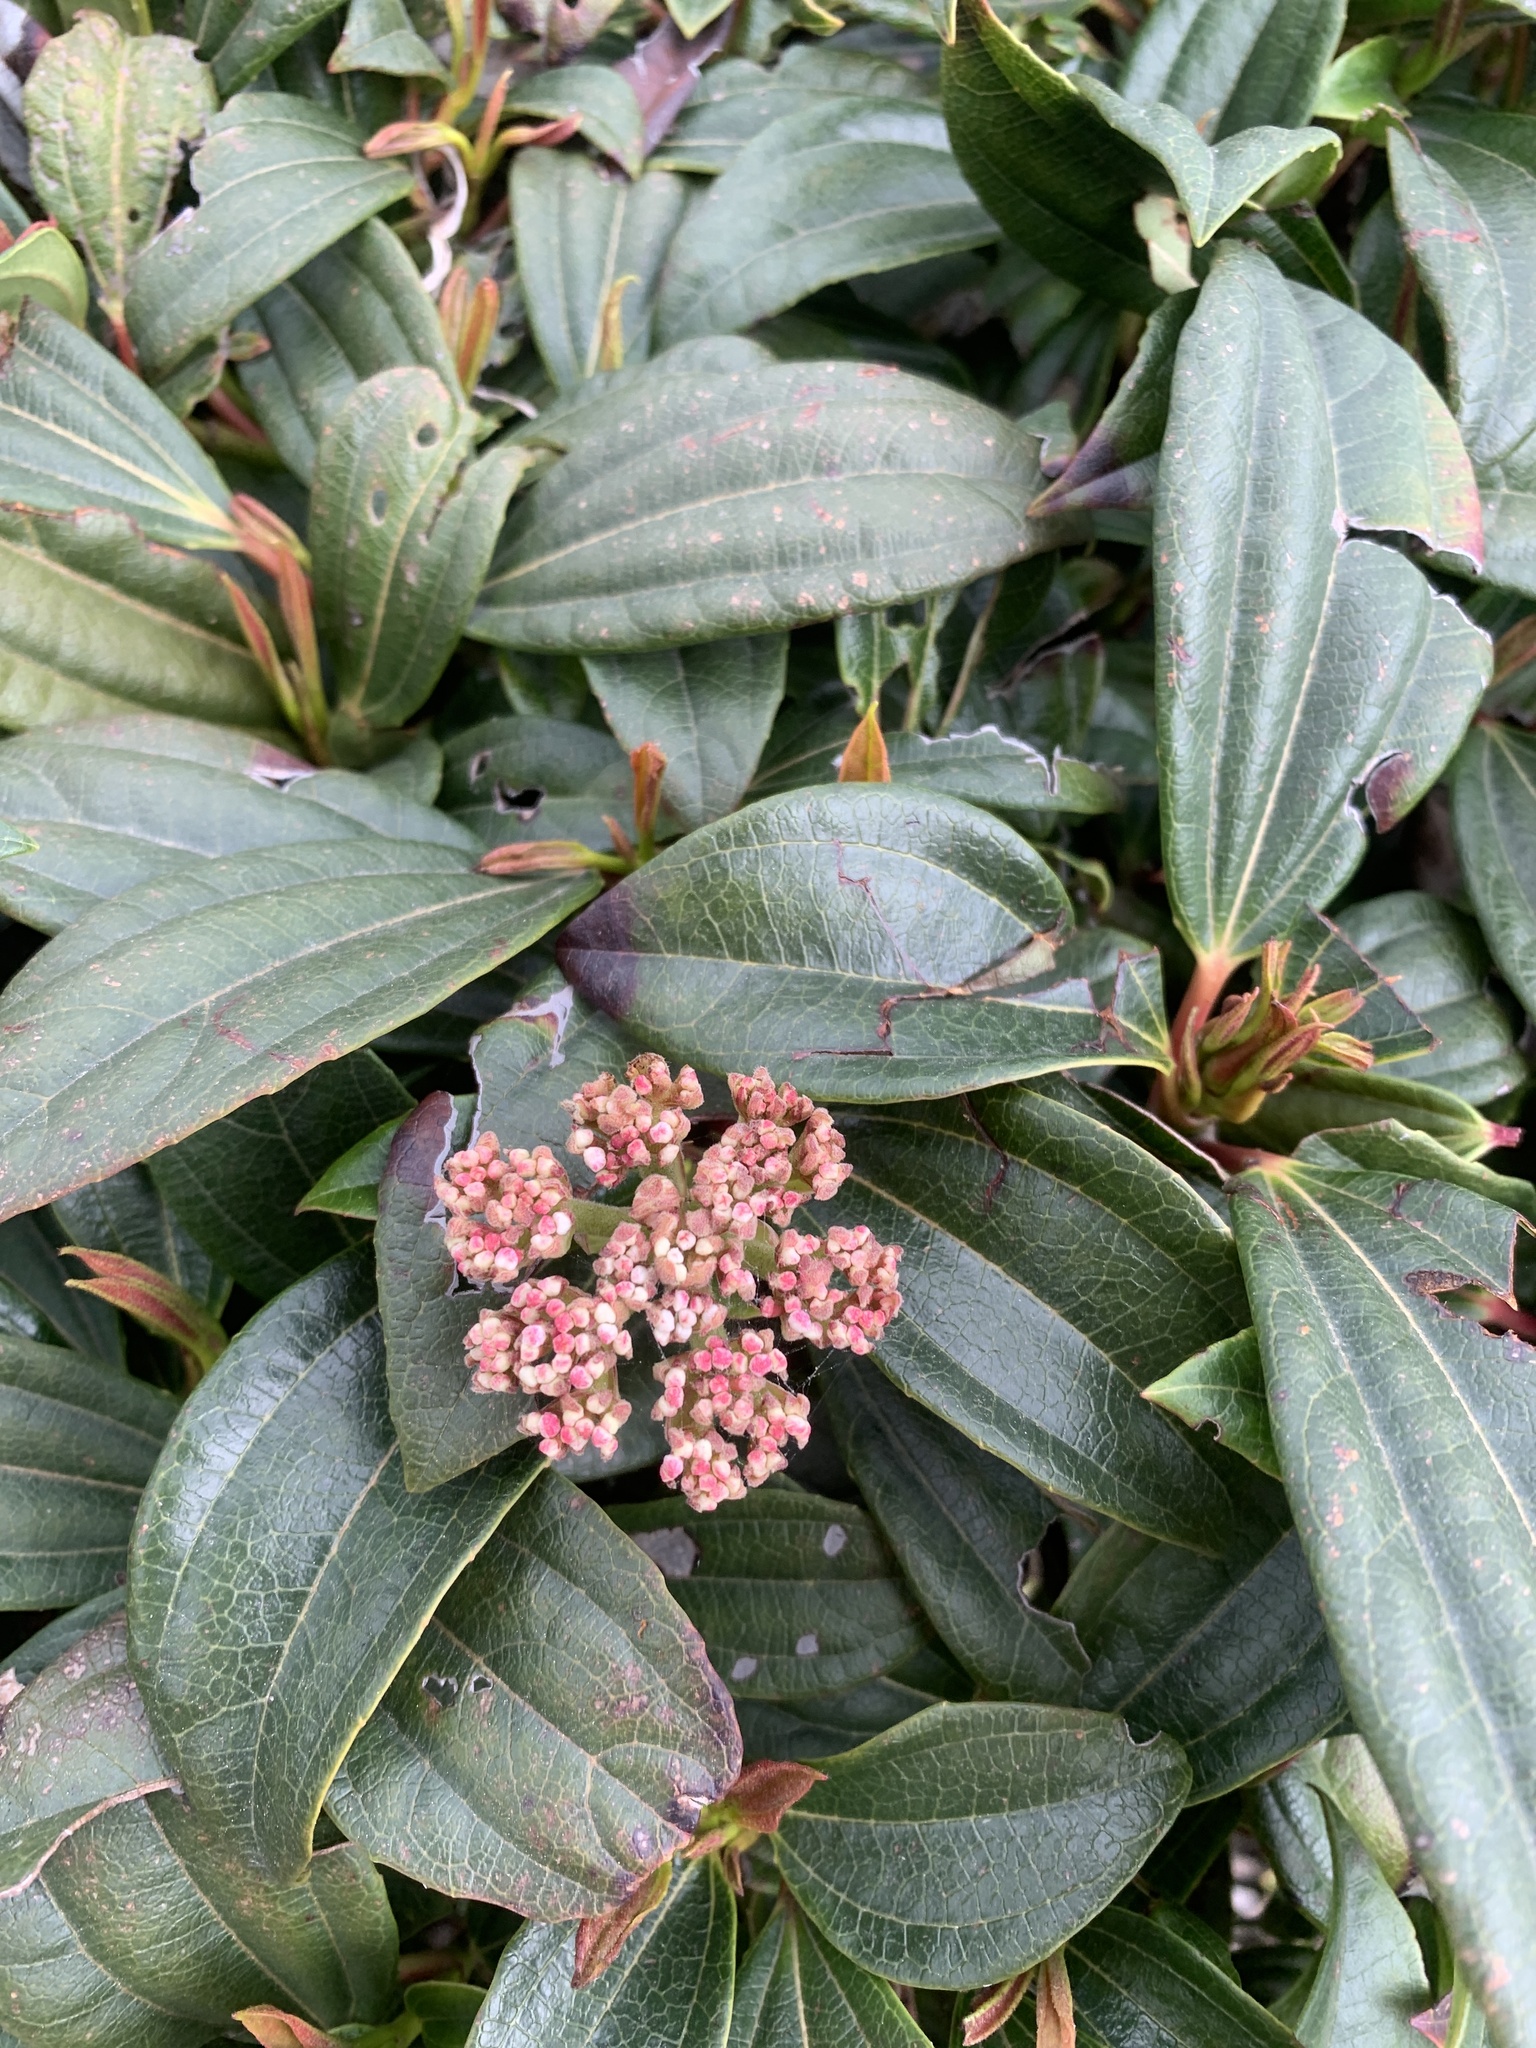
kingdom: Plantae
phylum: Tracheophyta
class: Magnoliopsida
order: Dipsacales
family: Viburnaceae
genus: Viburnum
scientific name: Viburnum davidi
